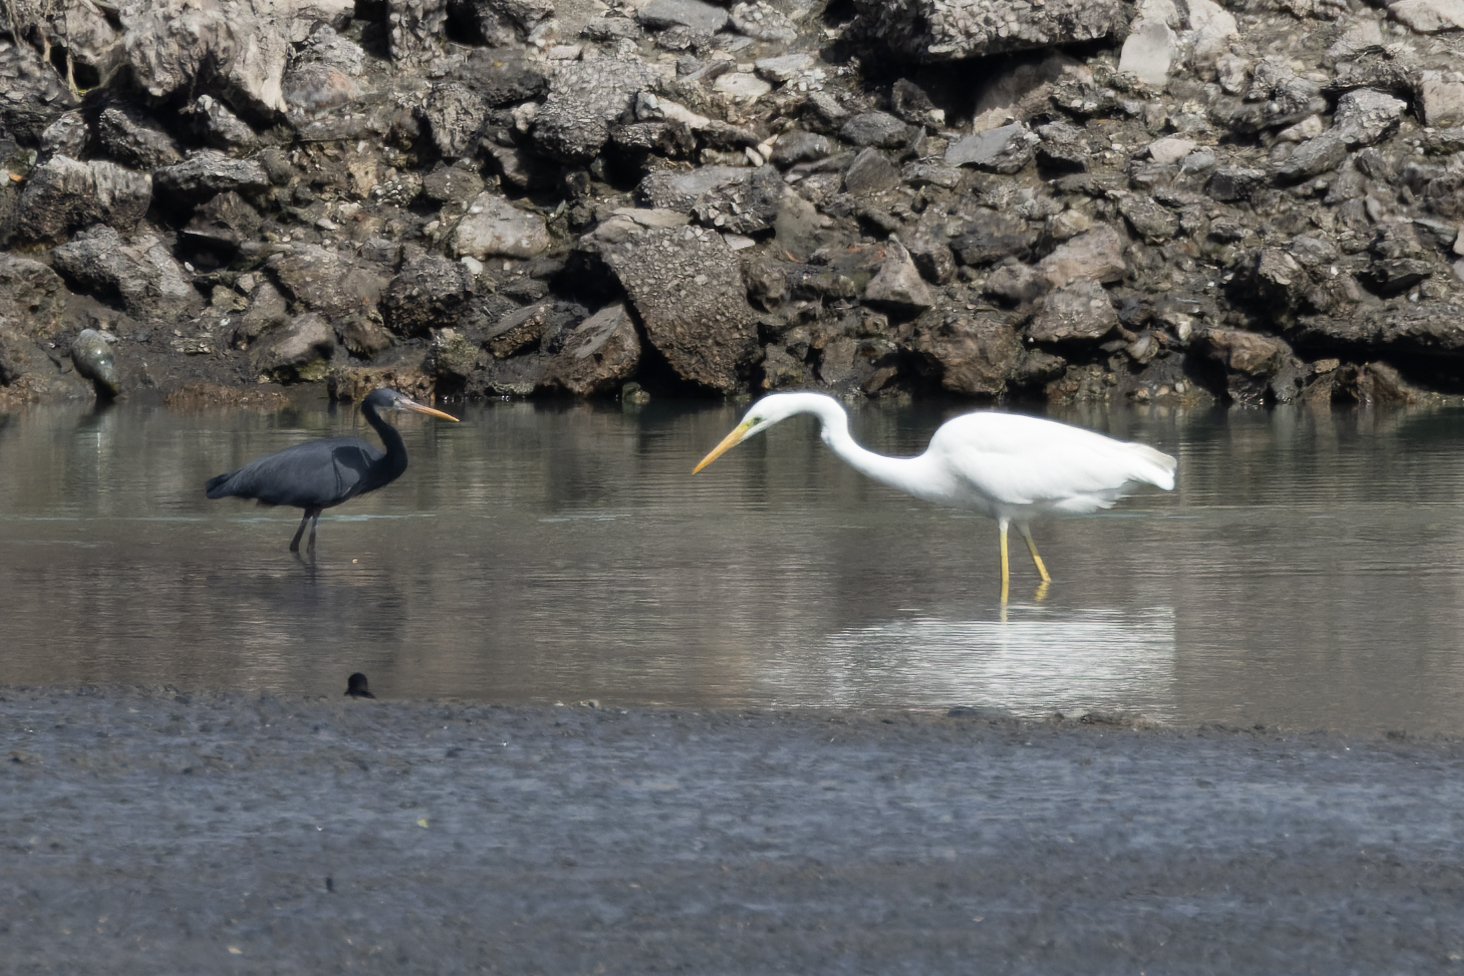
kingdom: Animalia
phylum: Chordata
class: Aves
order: Pelecaniformes
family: Ardeidae
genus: Ardea
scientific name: Ardea alba
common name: Great egret
